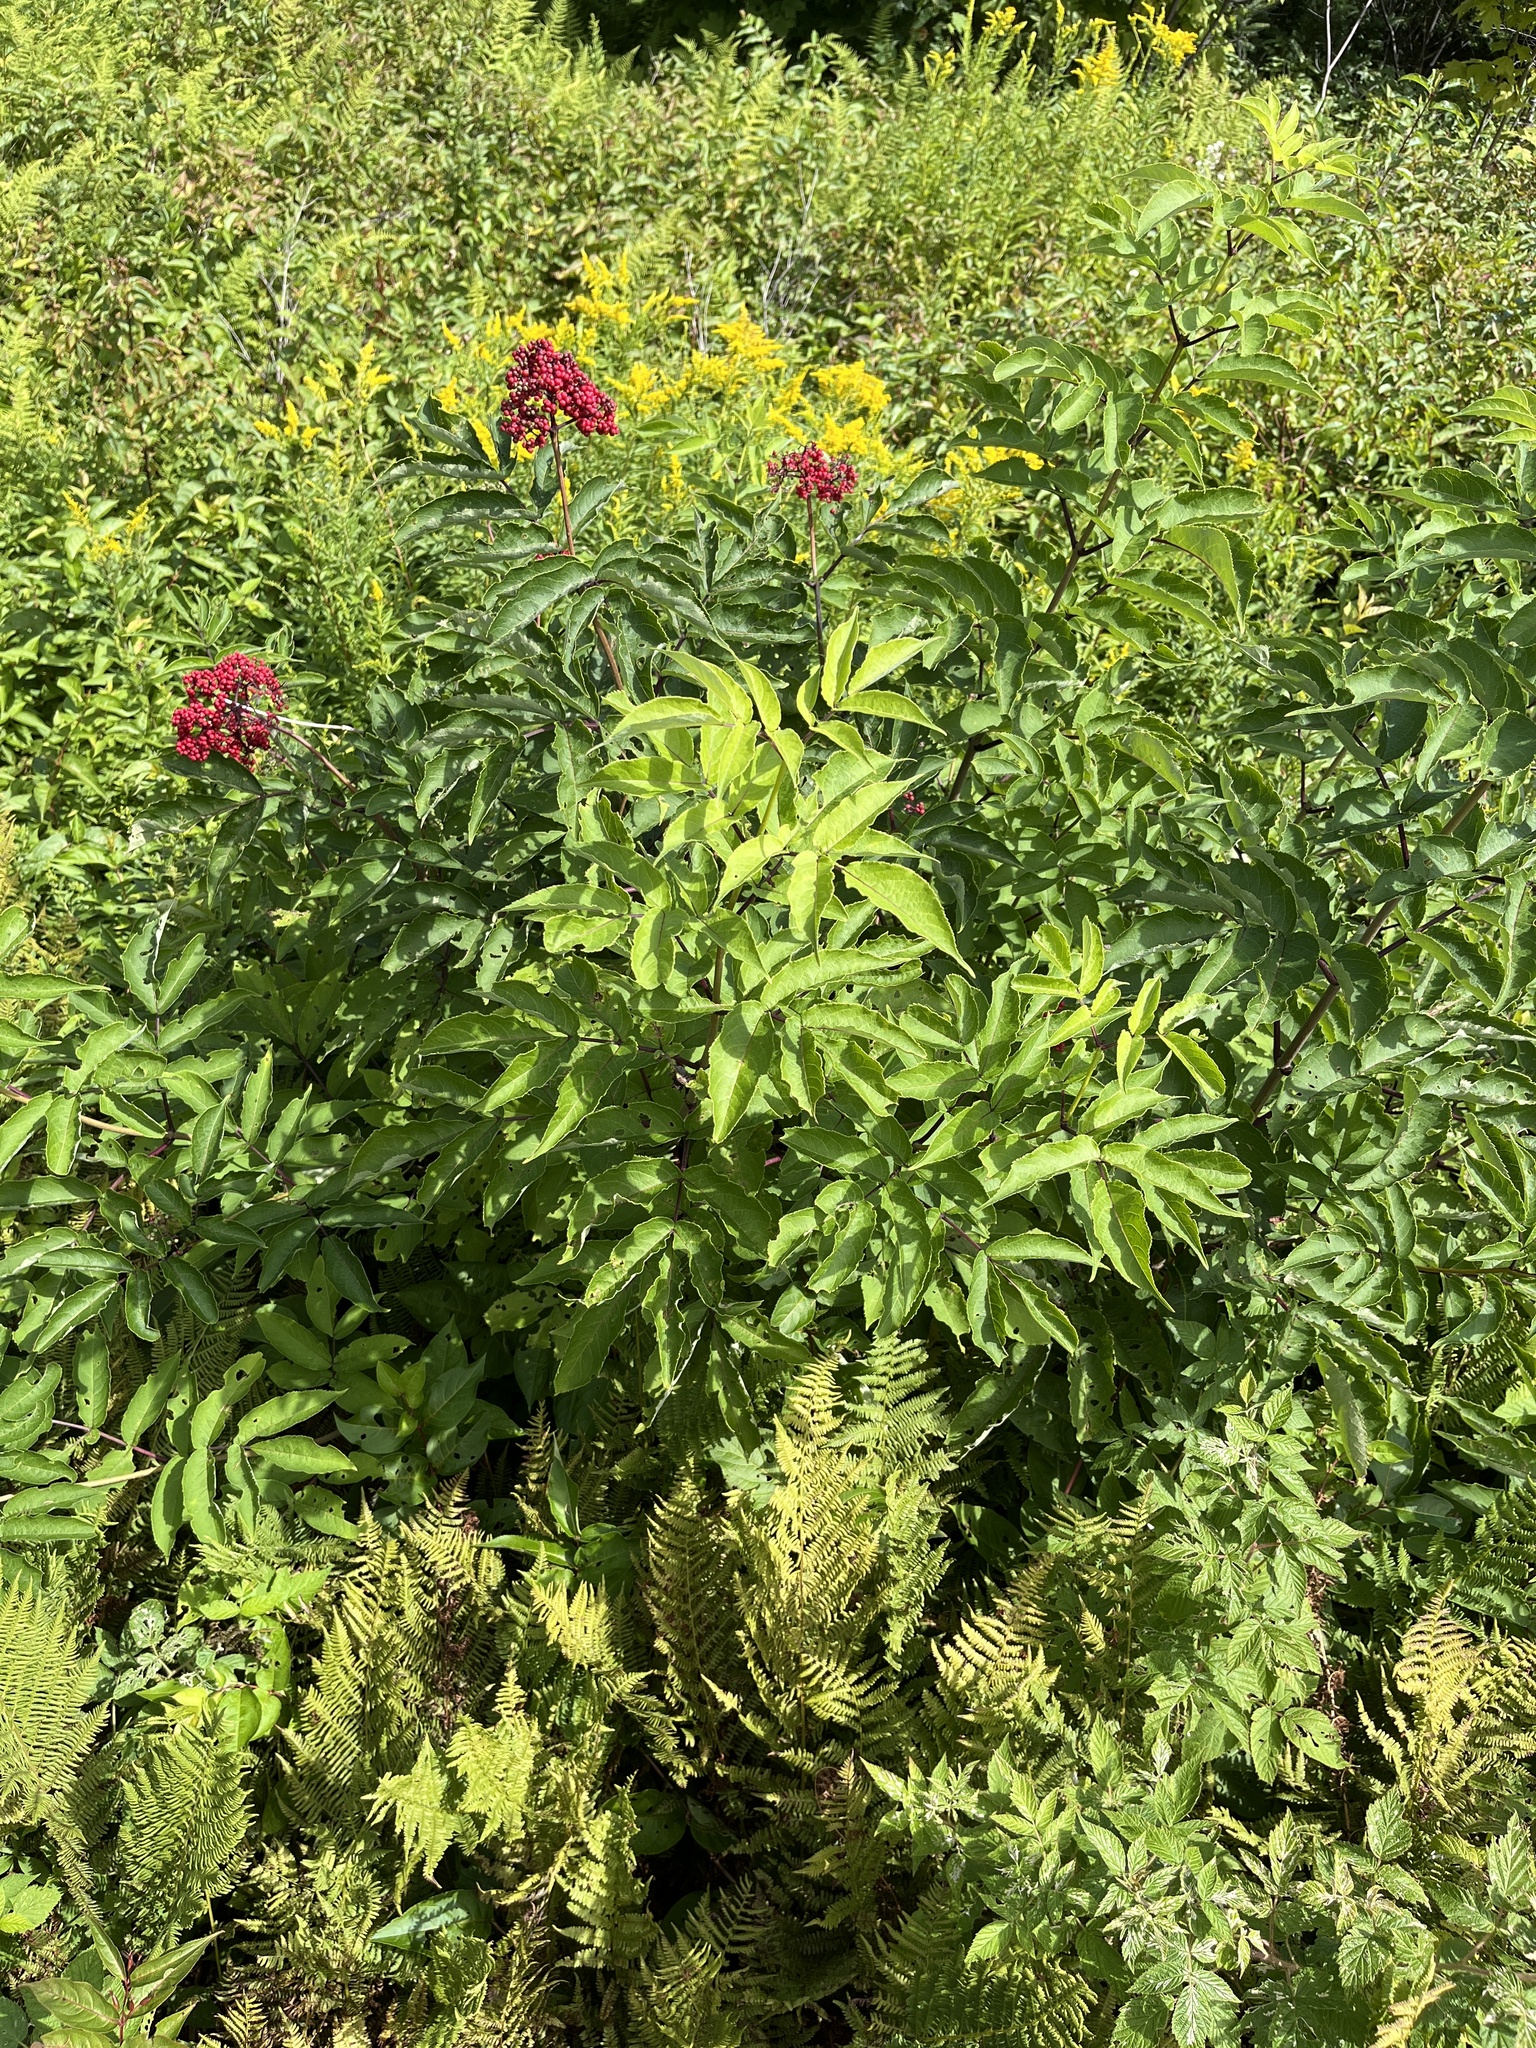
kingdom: Plantae
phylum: Tracheophyta
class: Magnoliopsida
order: Dipsacales
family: Viburnaceae
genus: Sambucus
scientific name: Sambucus racemosa
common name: Red-berried elder
